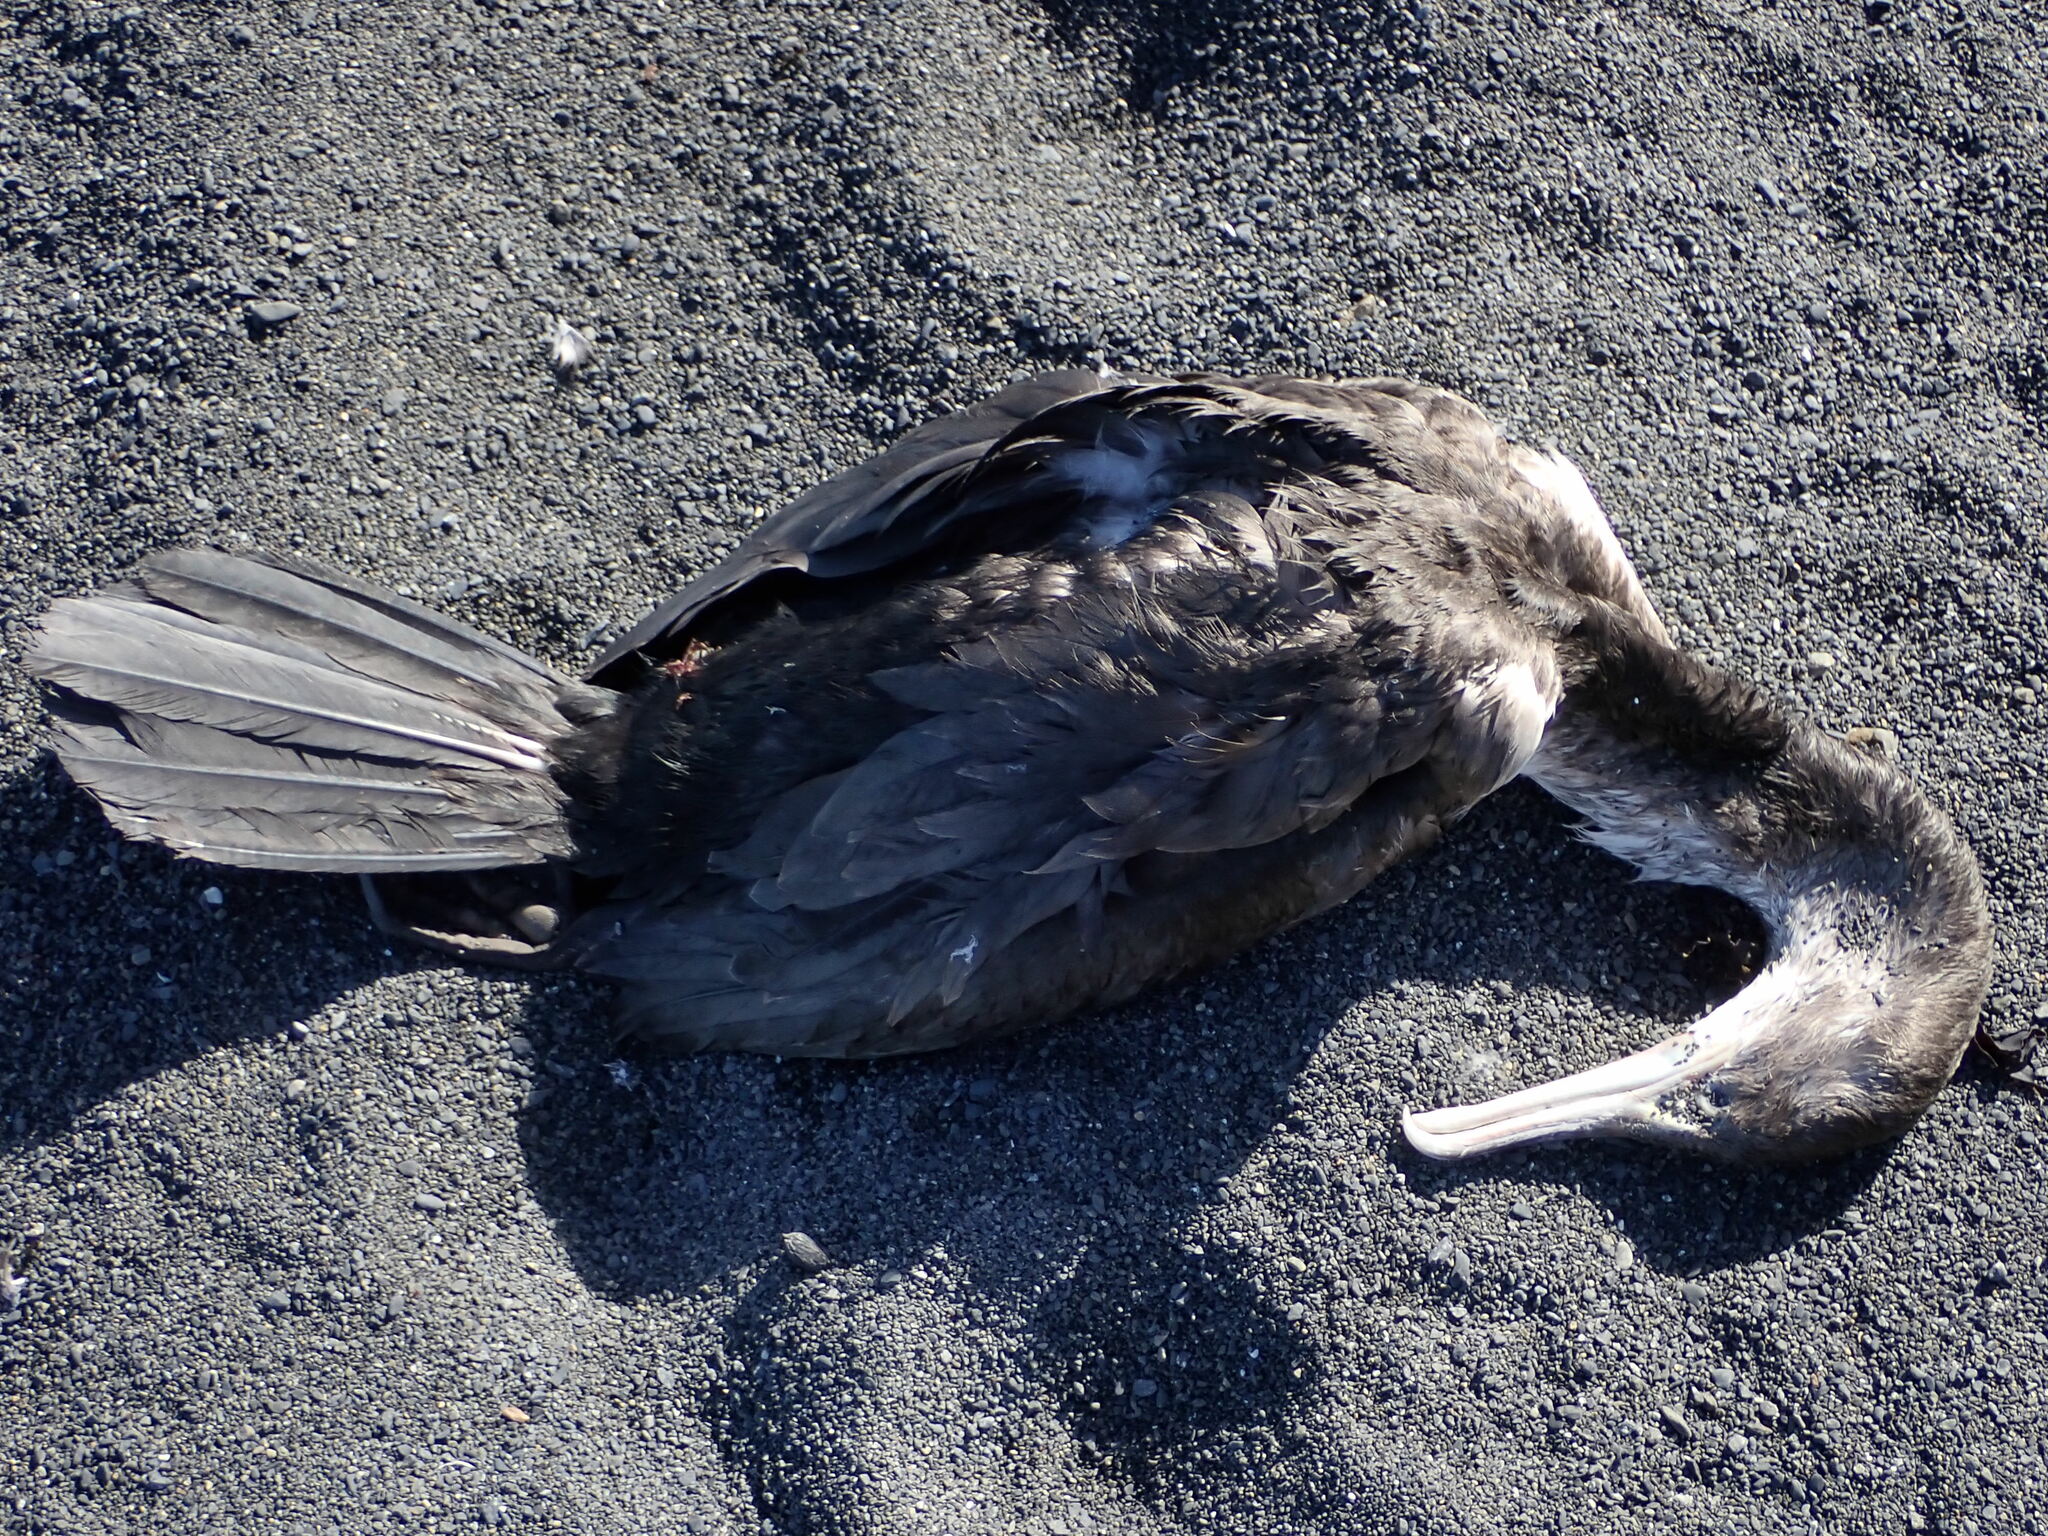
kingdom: Animalia
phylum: Chordata
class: Aves
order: Suliformes
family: Phalacrocoracidae
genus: Phalacrocorax
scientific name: Phalacrocorax varius
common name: Pied cormorant
